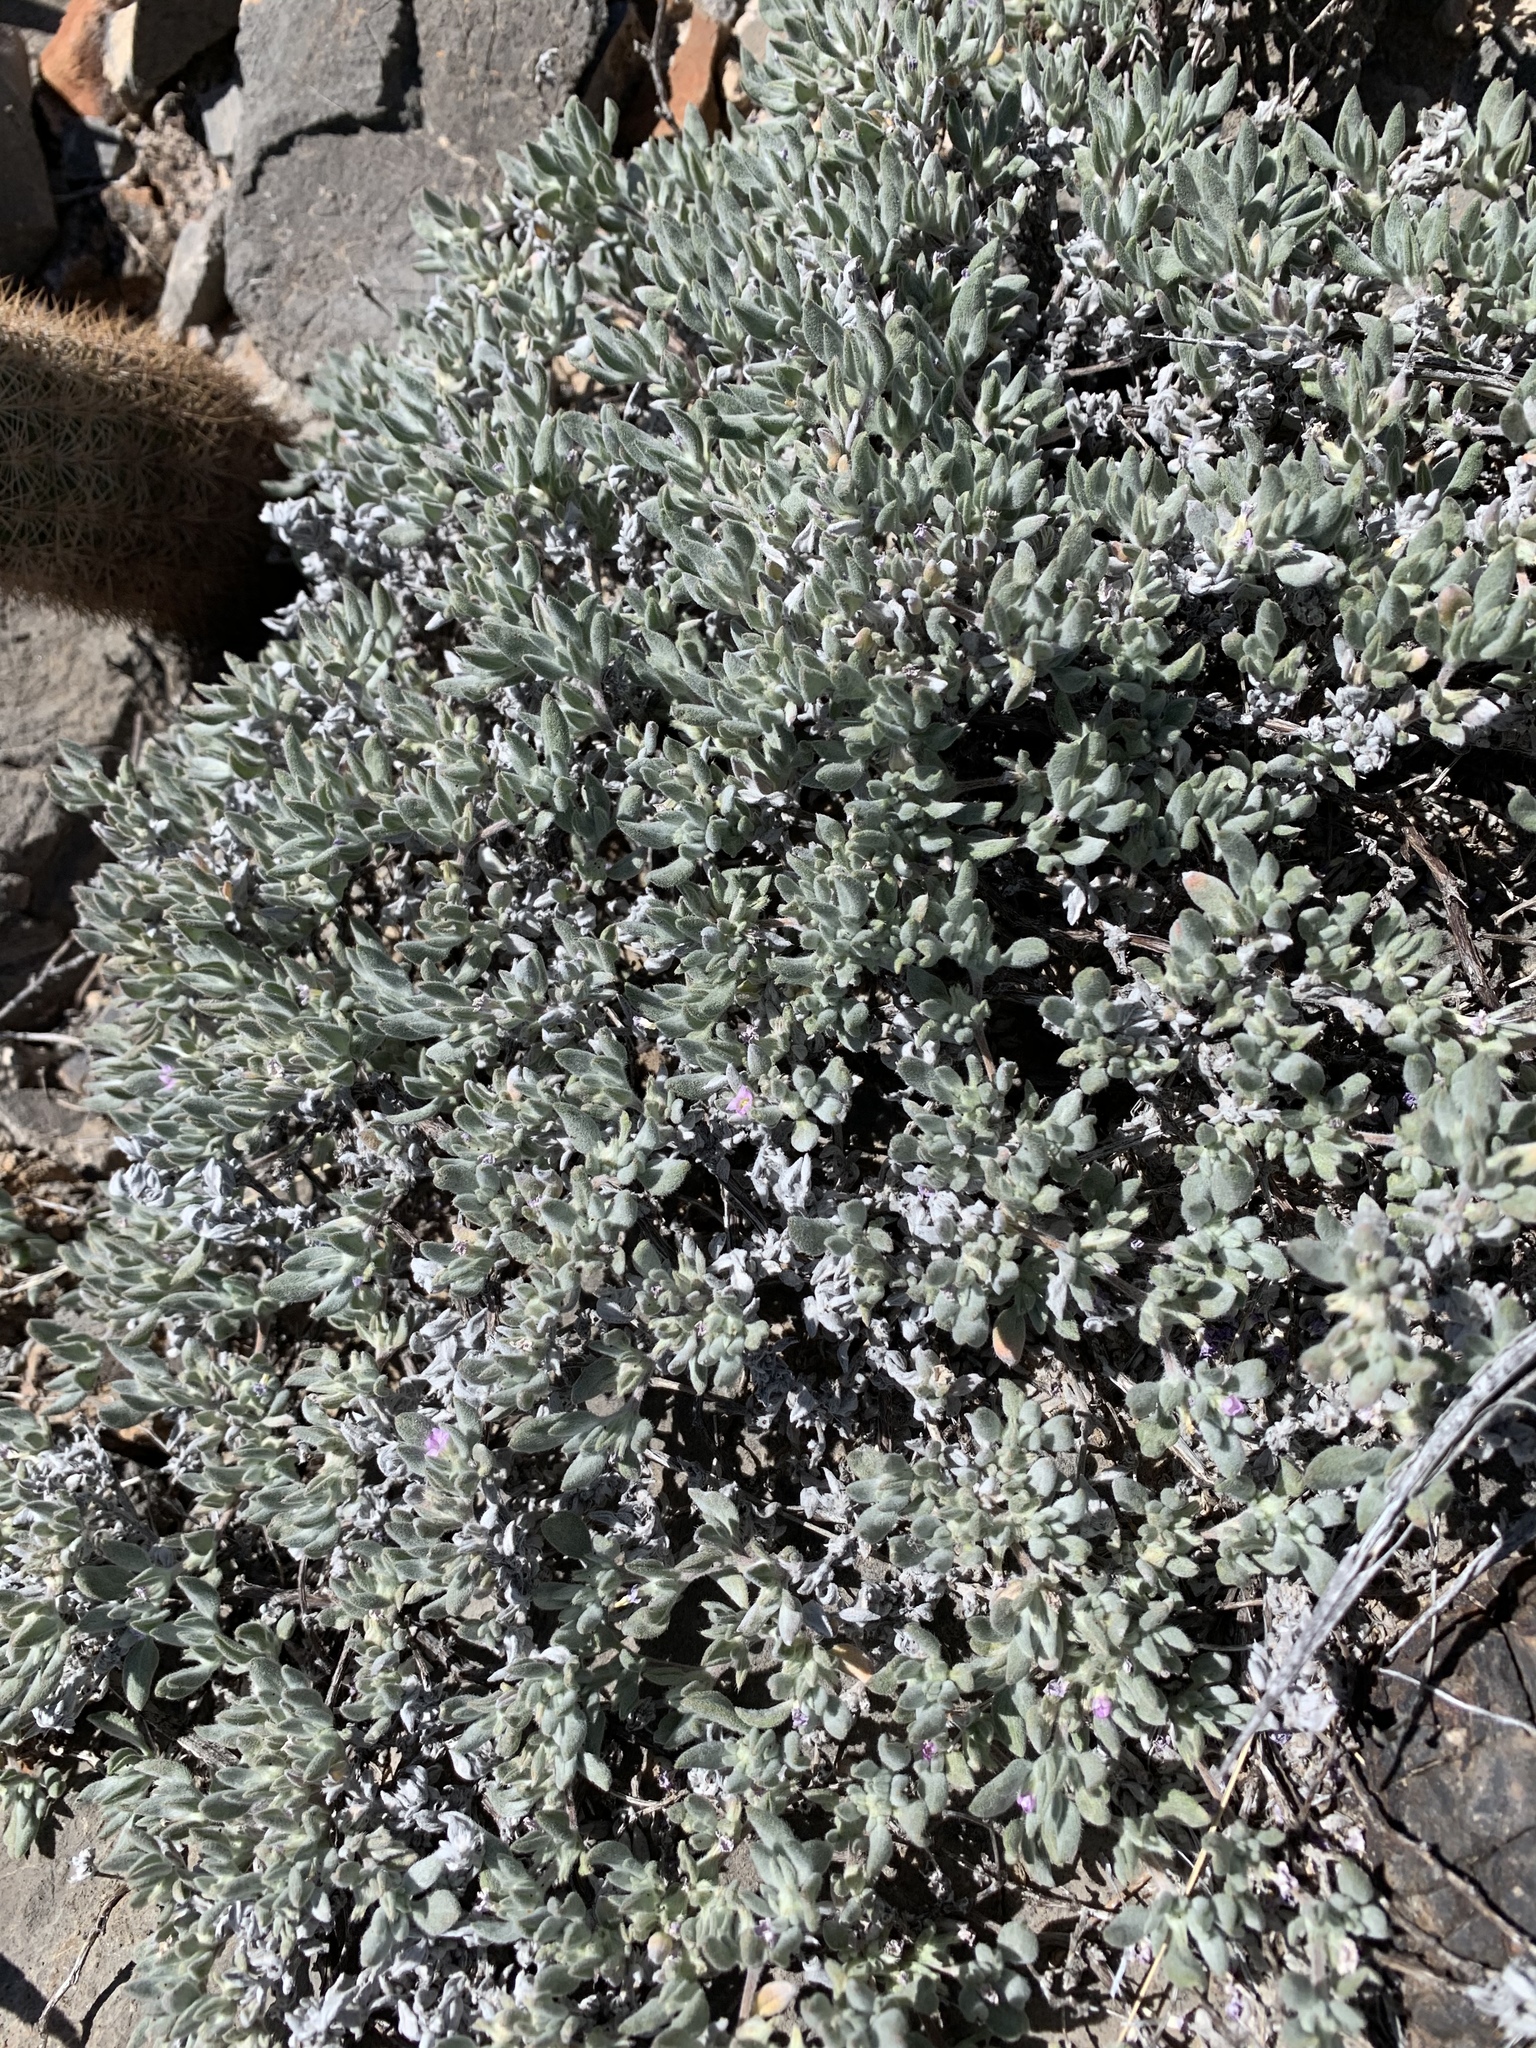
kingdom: Plantae
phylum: Tracheophyta
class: Magnoliopsida
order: Boraginales
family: Ehretiaceae
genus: Tiquilia
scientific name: Tiquilia canescens
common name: Hairy tiquilia
